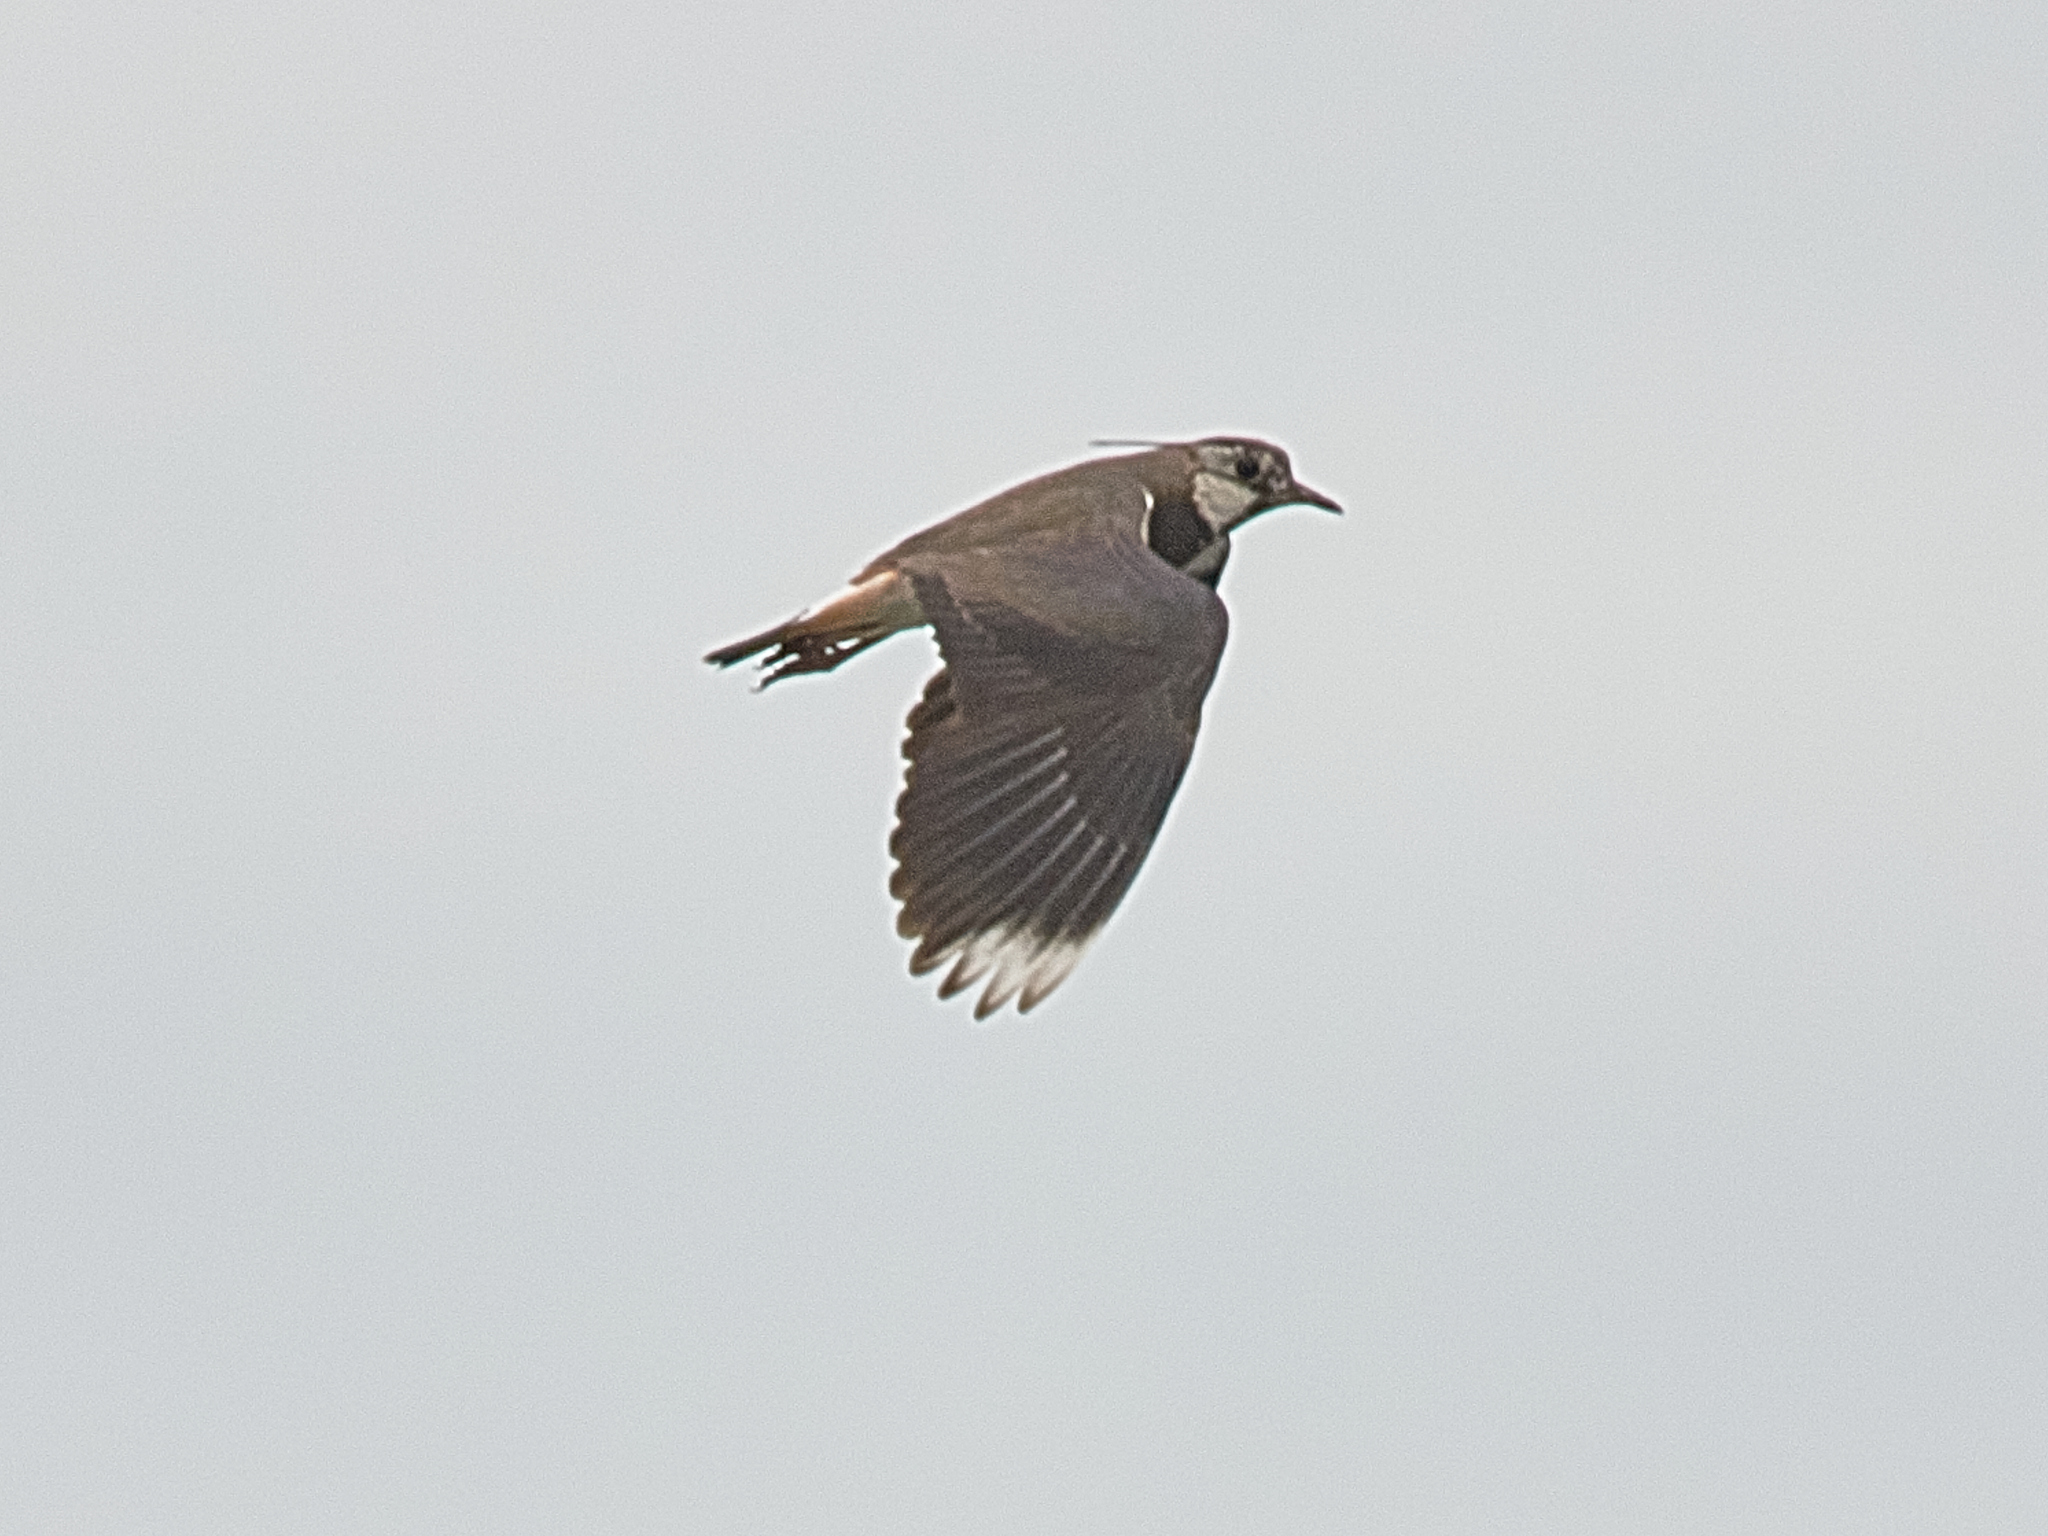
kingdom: Animalia
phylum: Chordata
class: Aves
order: Charadriiformes
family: Charadriidae
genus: Vanellus
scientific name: Vanellus vanellus
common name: Northern lapwing
